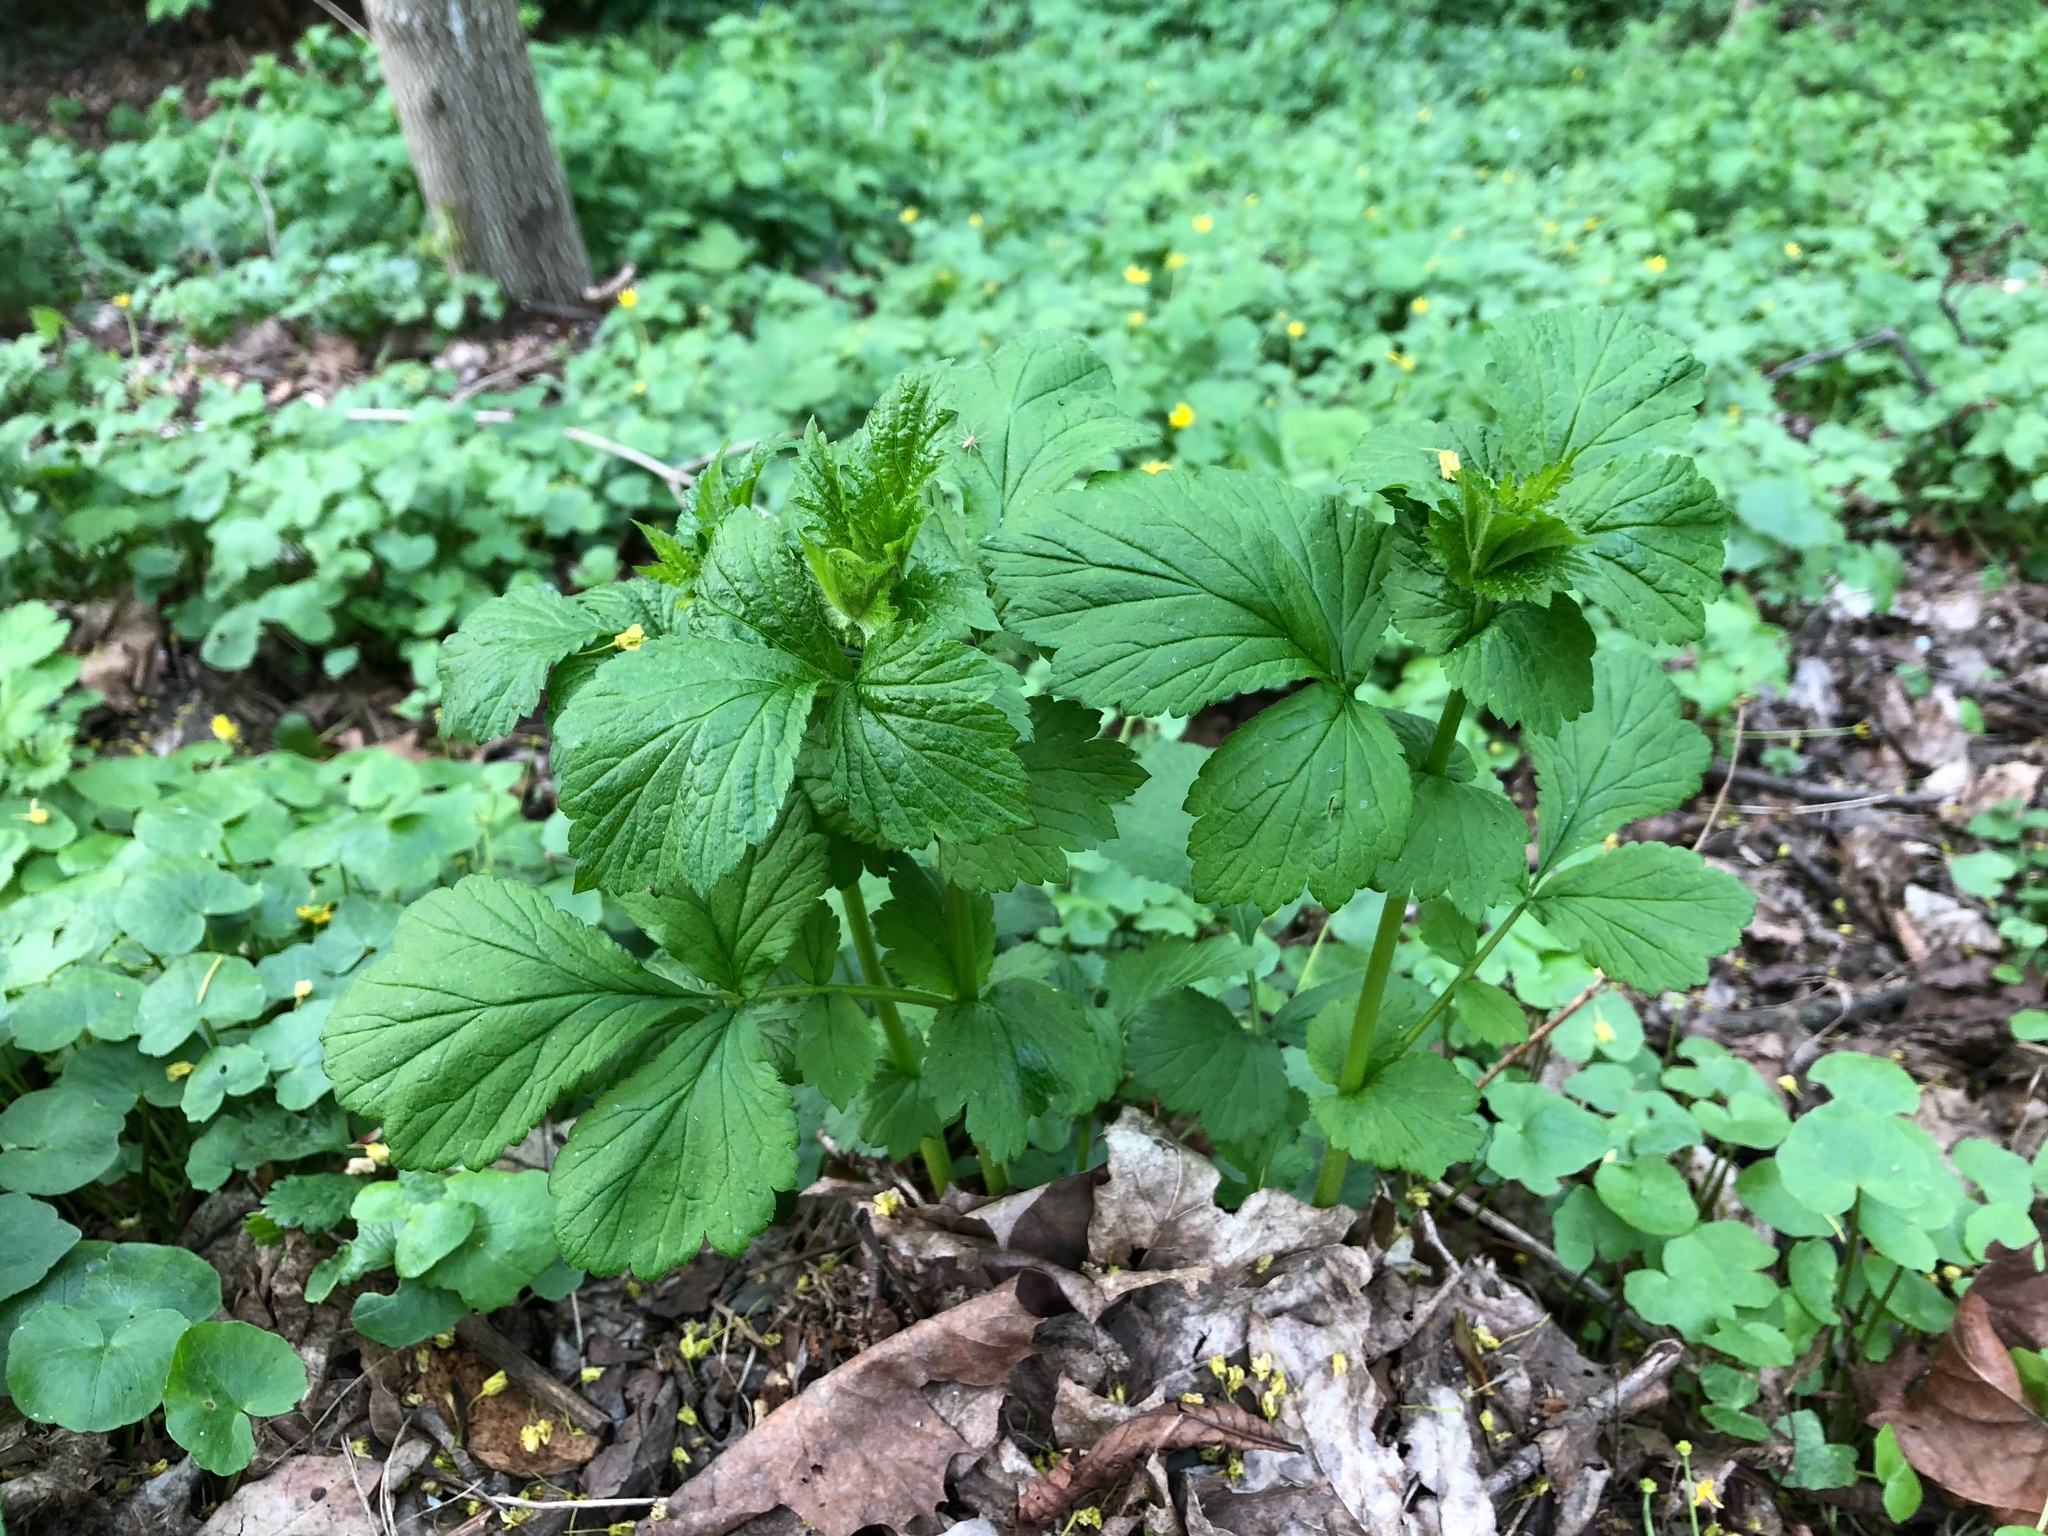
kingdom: Plantae
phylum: Tracheophyta
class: Magnoliopsida
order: Rosales
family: Rosaceae
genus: Geum
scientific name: Geum urbanum
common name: Wood avens
